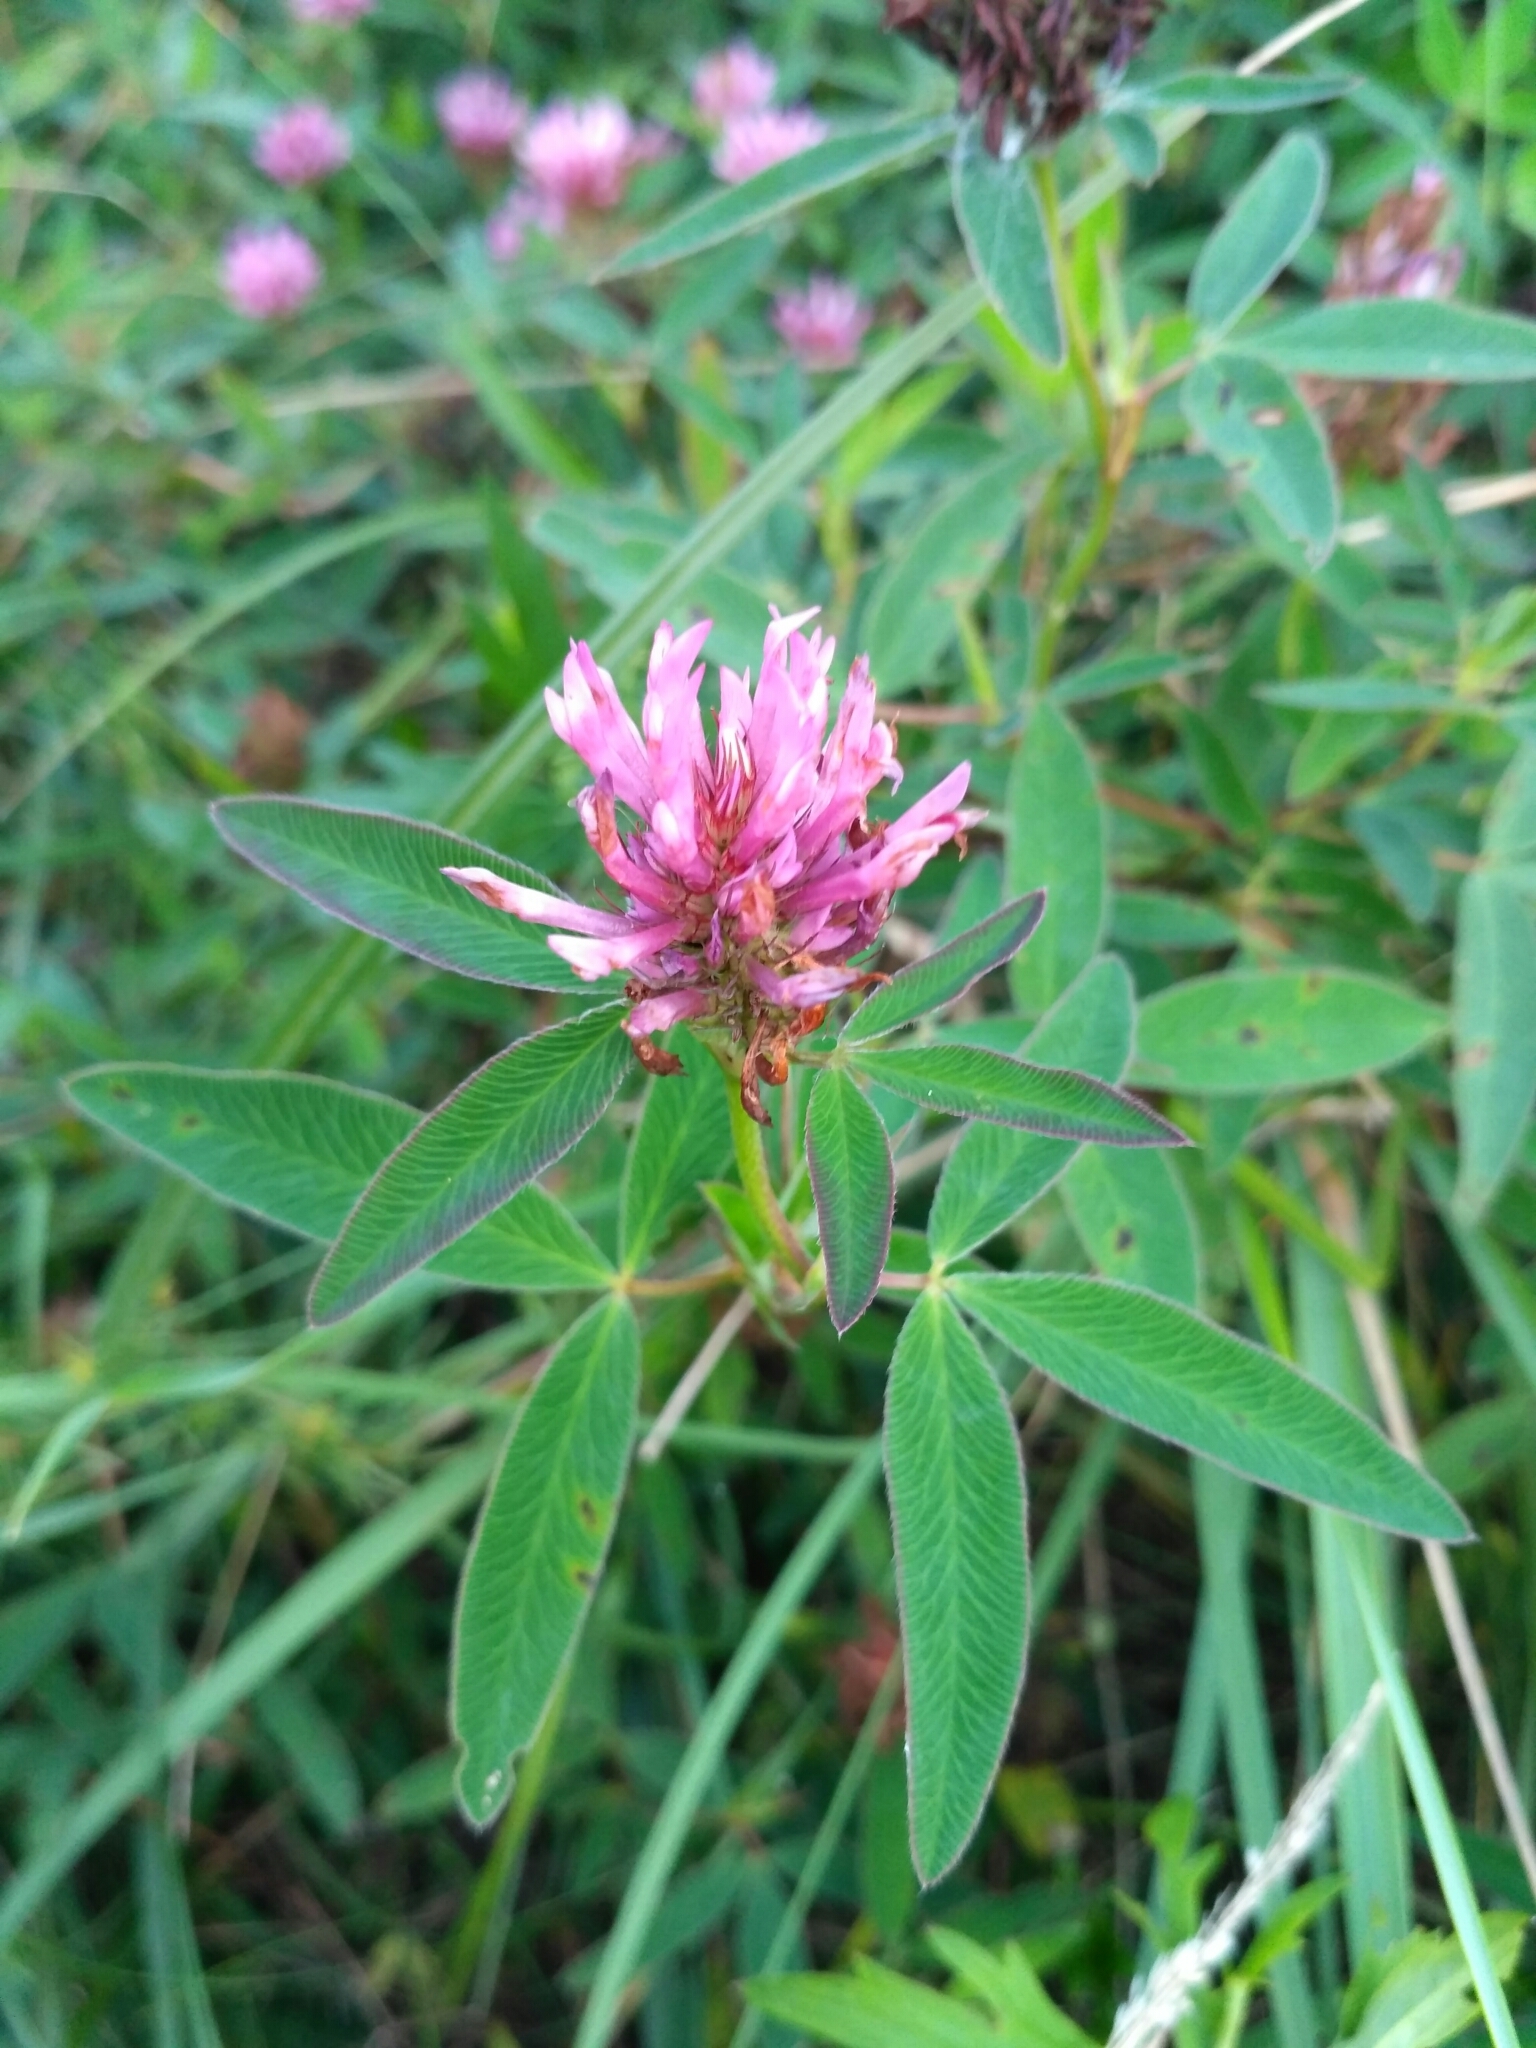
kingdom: Plantae
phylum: Tracheophyta
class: Magnoliopsida
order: Fabales
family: Fabaceae
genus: Trifolium
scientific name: Trifolium medium
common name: Zigzag clover
